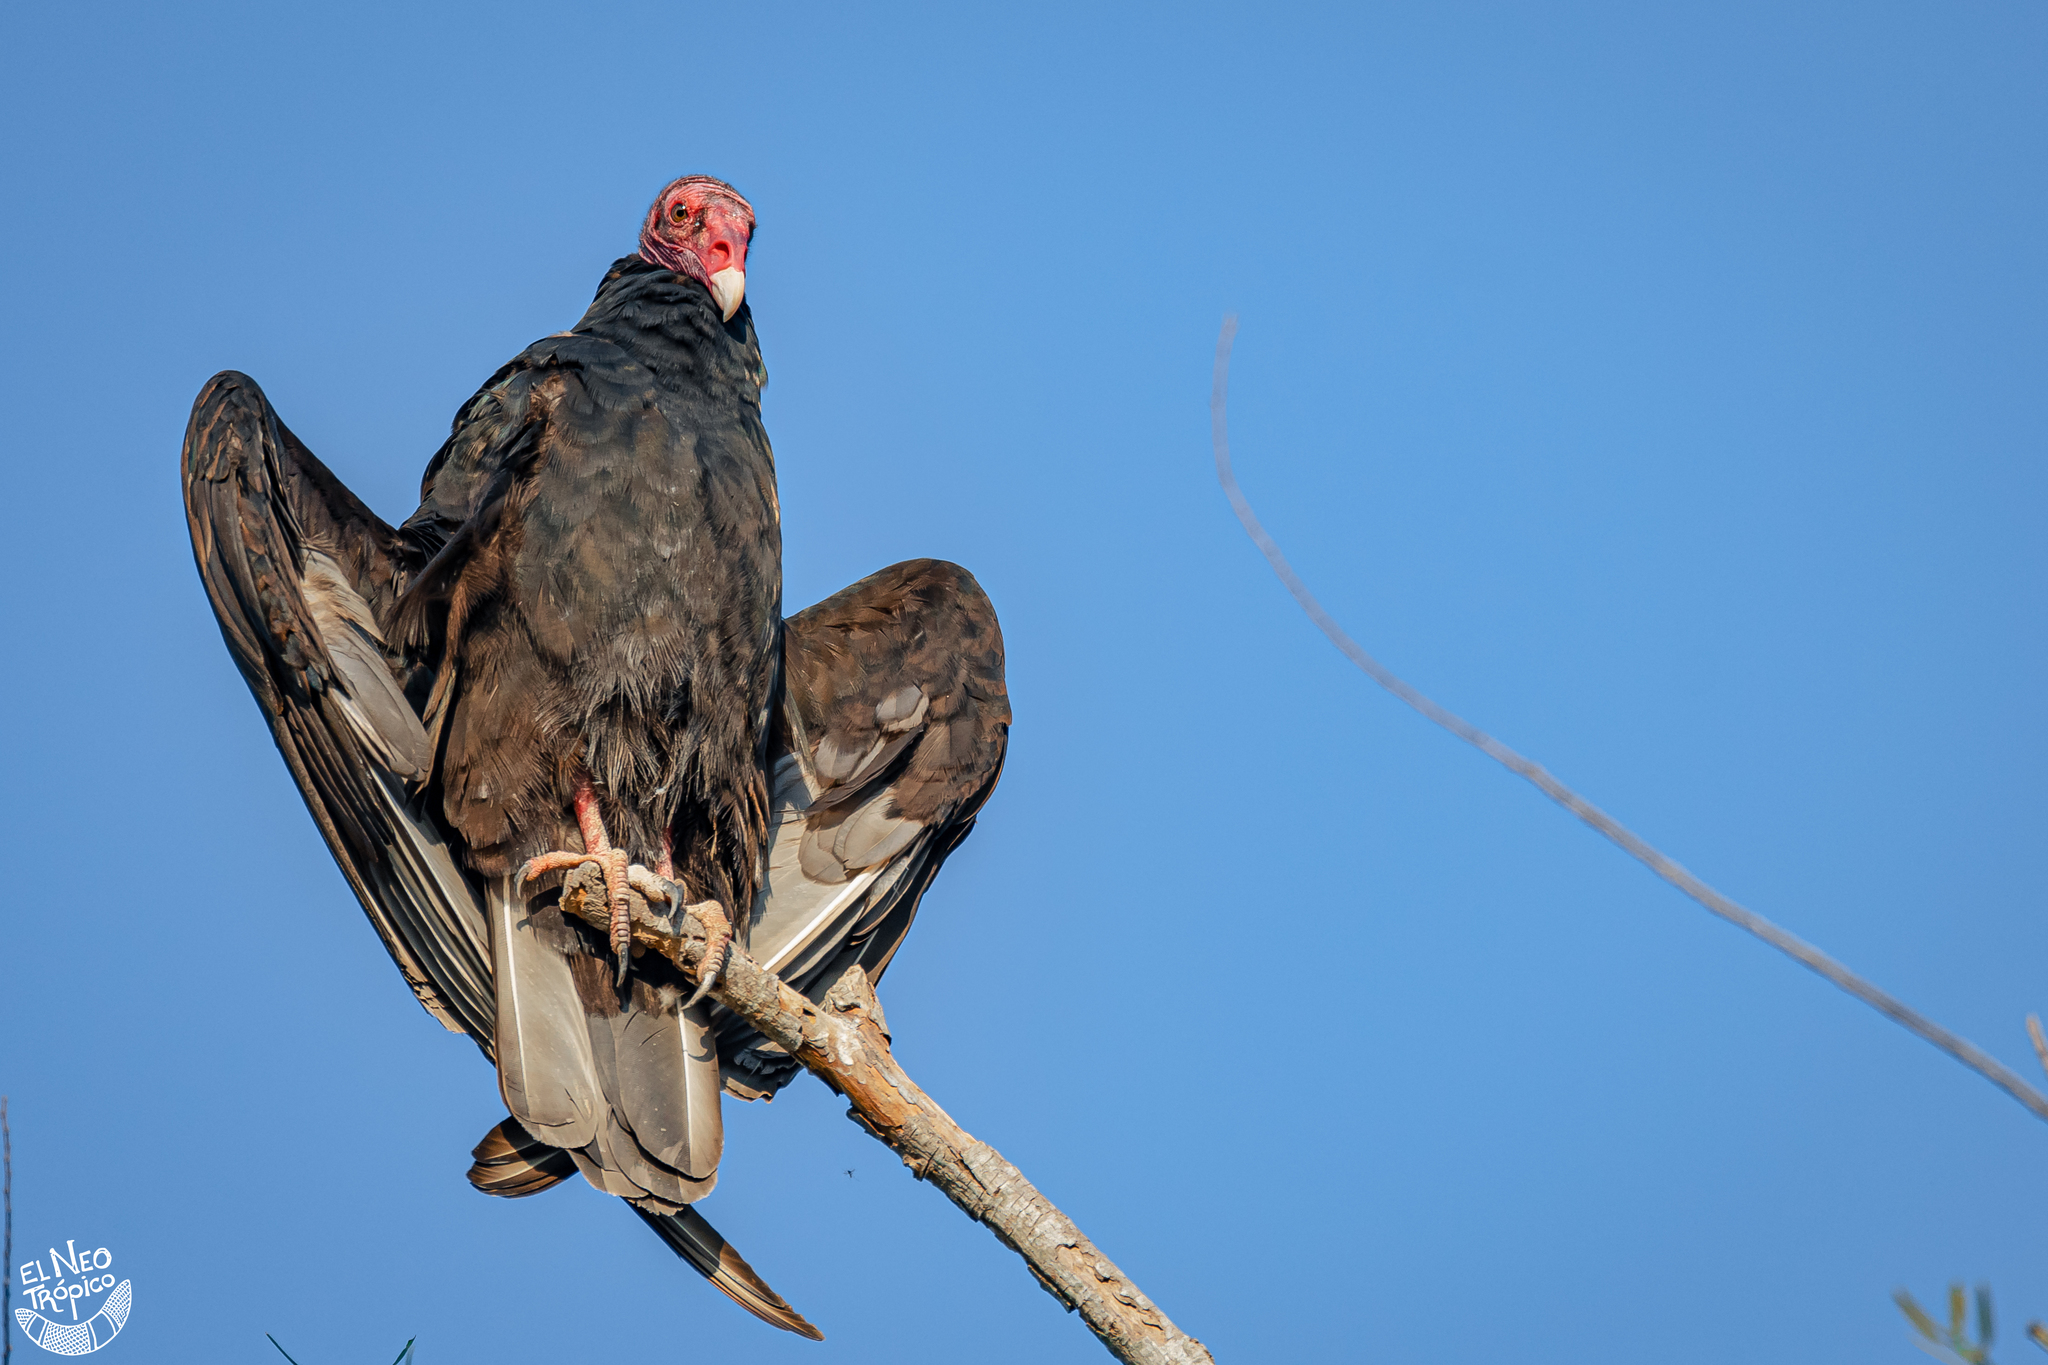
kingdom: Animalia
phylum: Chordata
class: Aves
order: Accipitriformes
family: Cathartidae
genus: Cathartes
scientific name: Cathartes aura
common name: Turkey vulture
